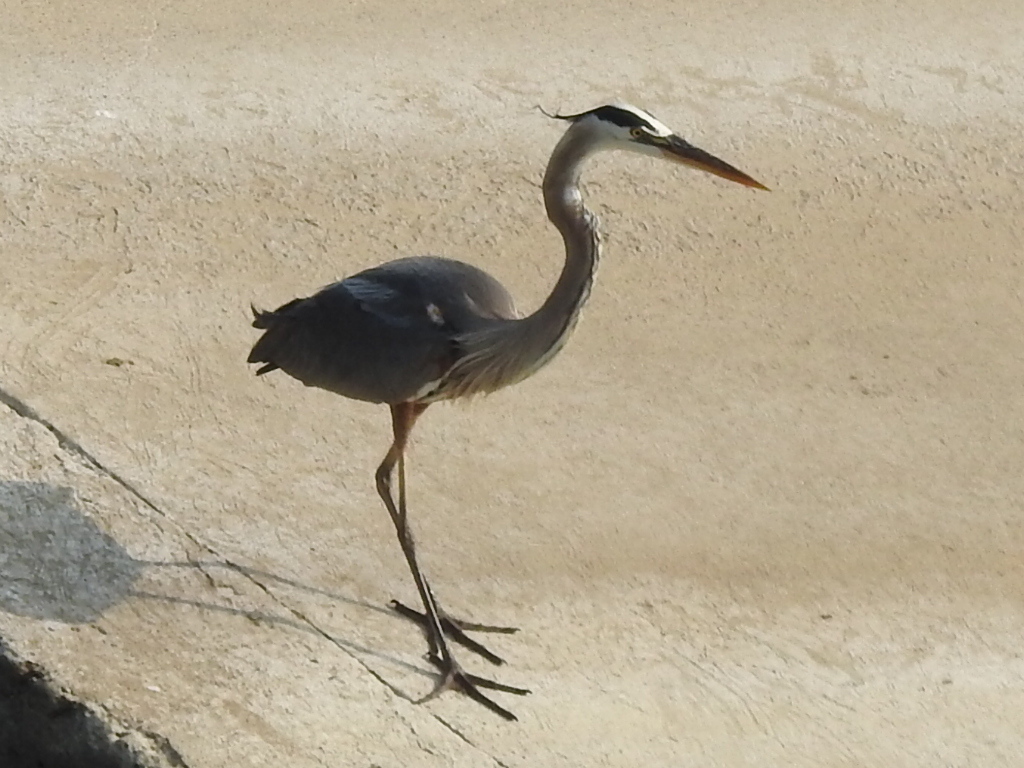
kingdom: Animalia
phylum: Chordata
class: Aves
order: Pelecaniformes
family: Ardeidae
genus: Ardea
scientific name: Ardea herodias
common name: Great blue heron
